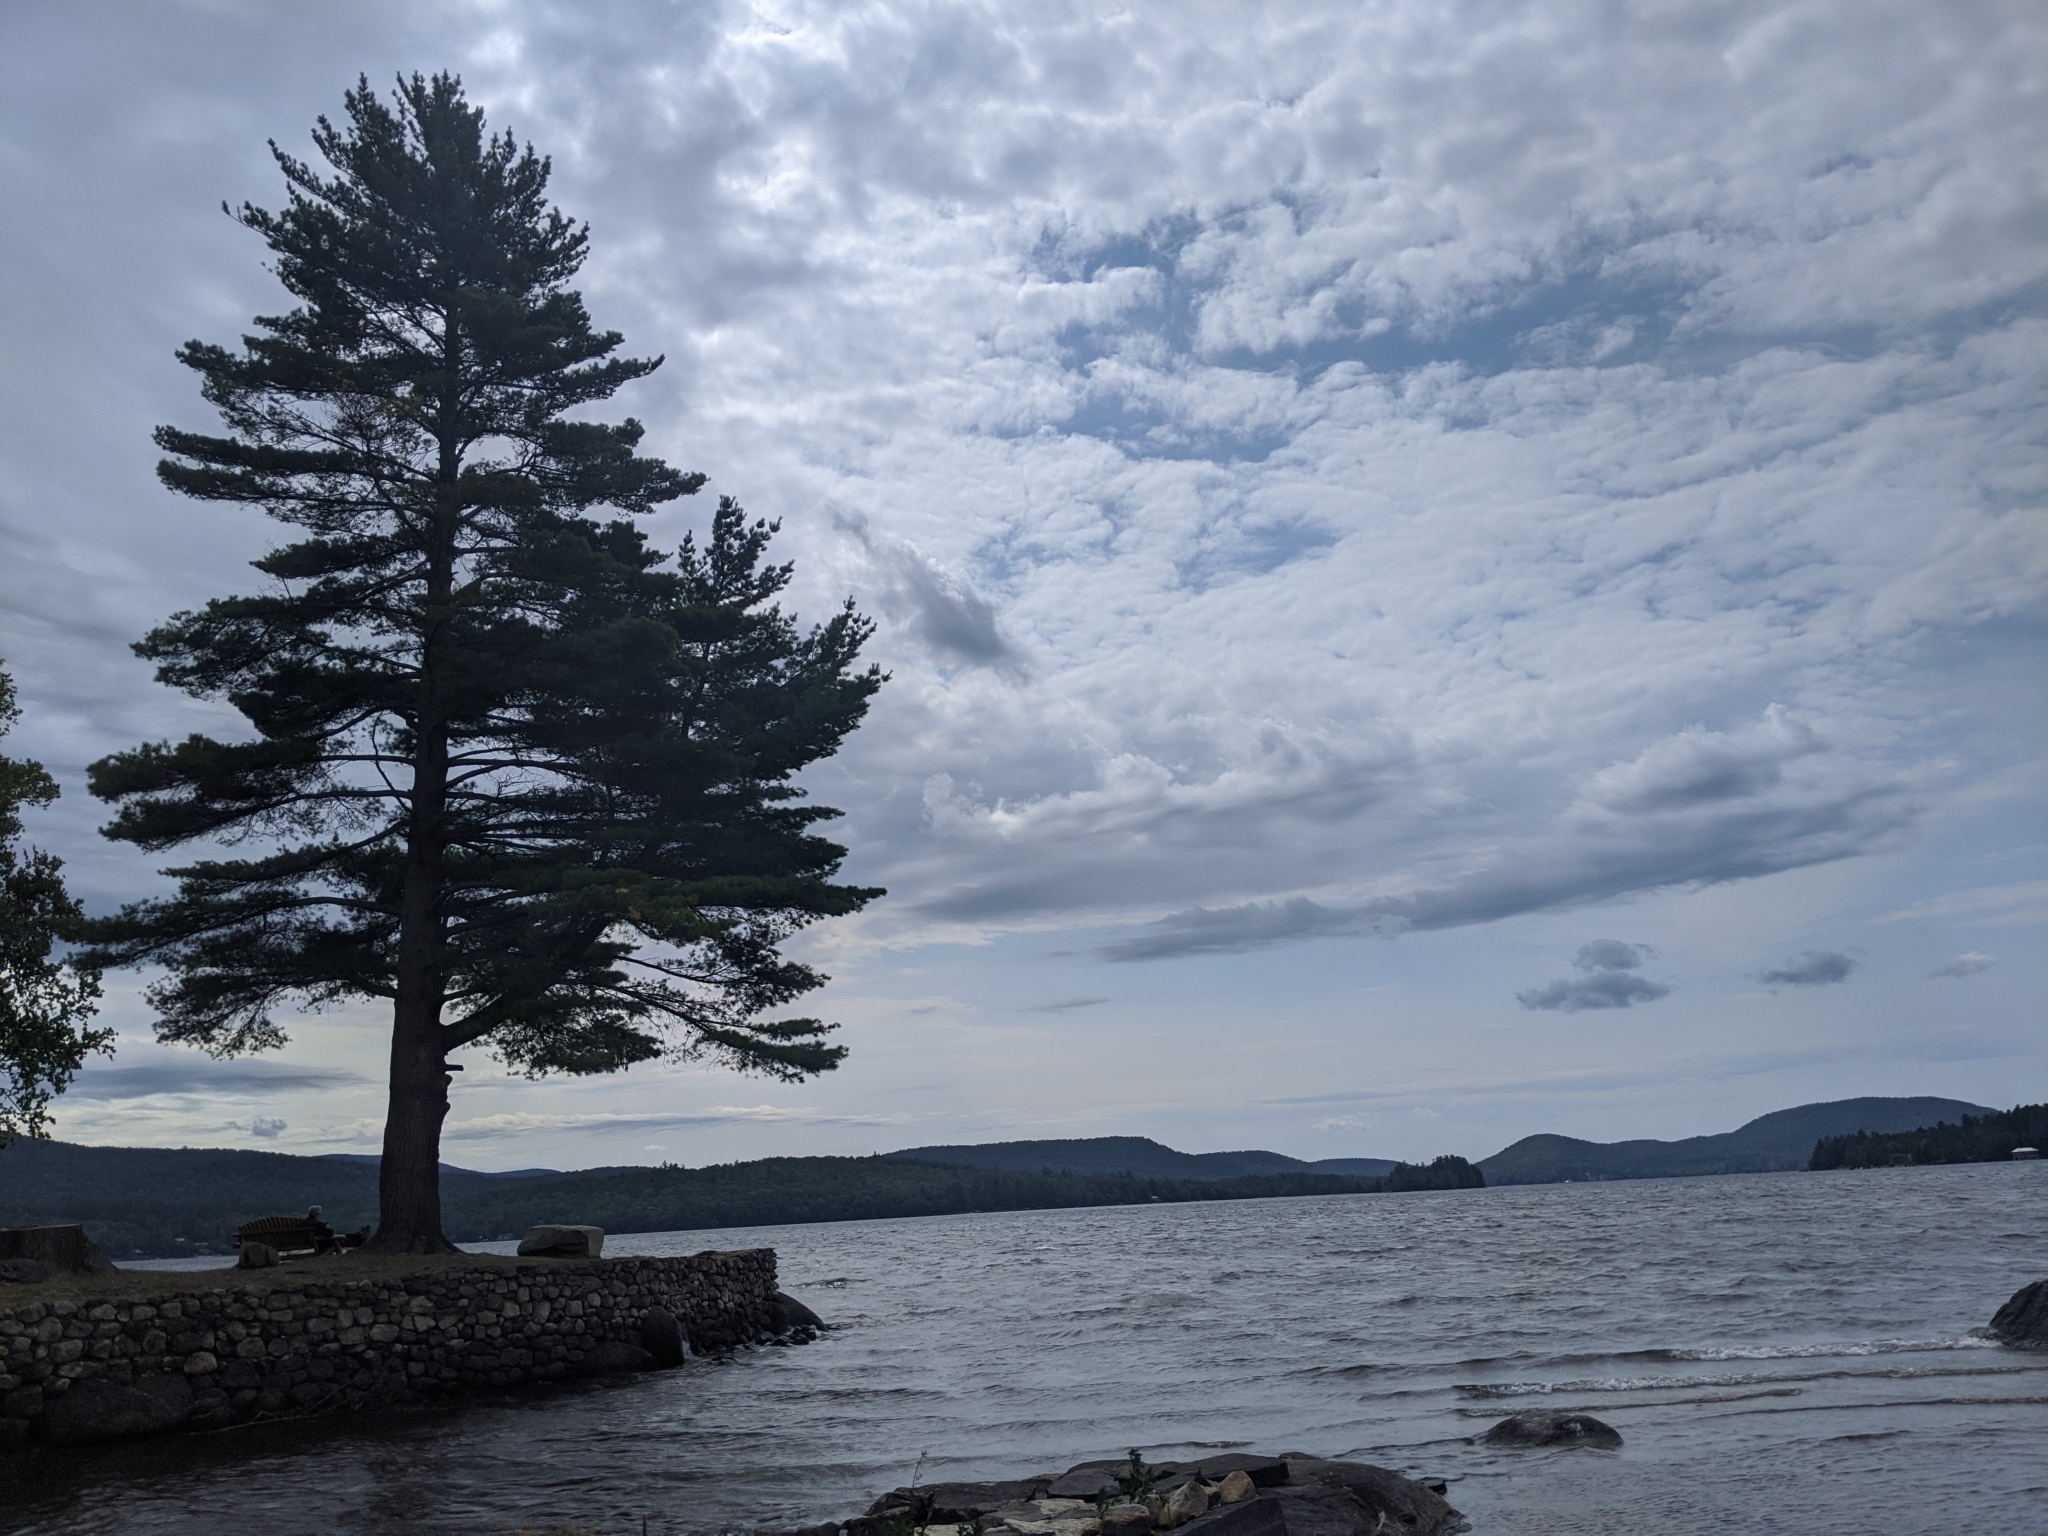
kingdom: Plantae
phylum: Tracheophyta
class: Pinopsida
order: Pinales
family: Pinaceae
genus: Pinus
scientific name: Pinus strobus
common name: Weymouth pine
